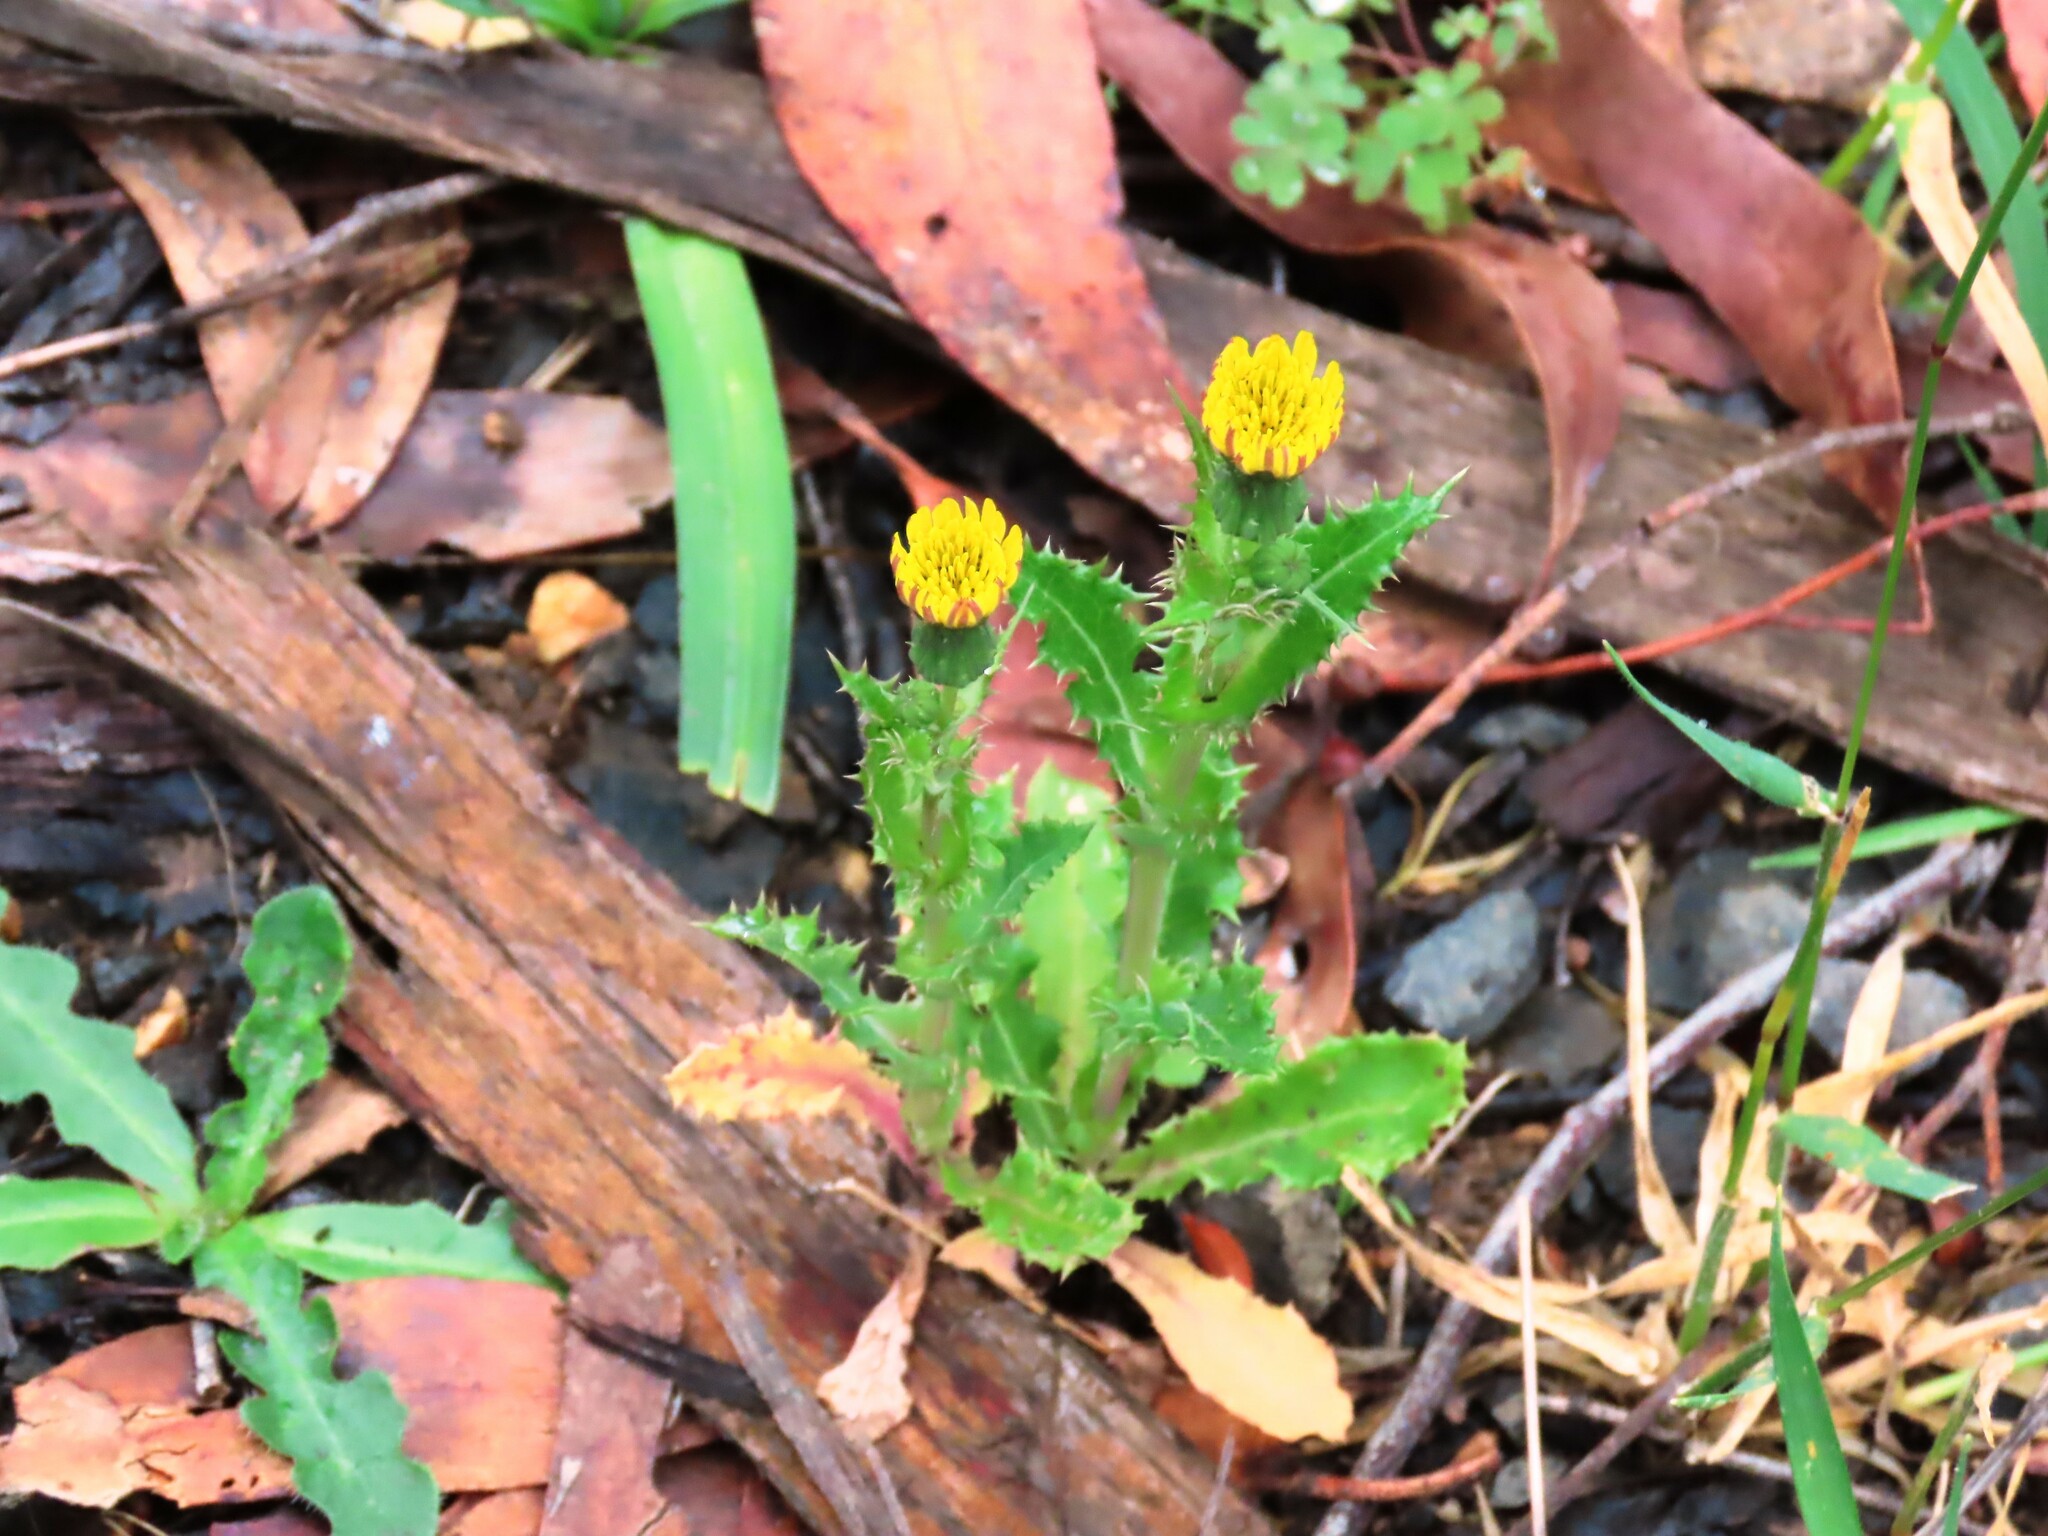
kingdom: Plantae
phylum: Tracheophyta
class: Magnoliopsida
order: Asterales
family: Asteraceae
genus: Sonchus
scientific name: Sonchus asper
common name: Prickly sow-thistle
